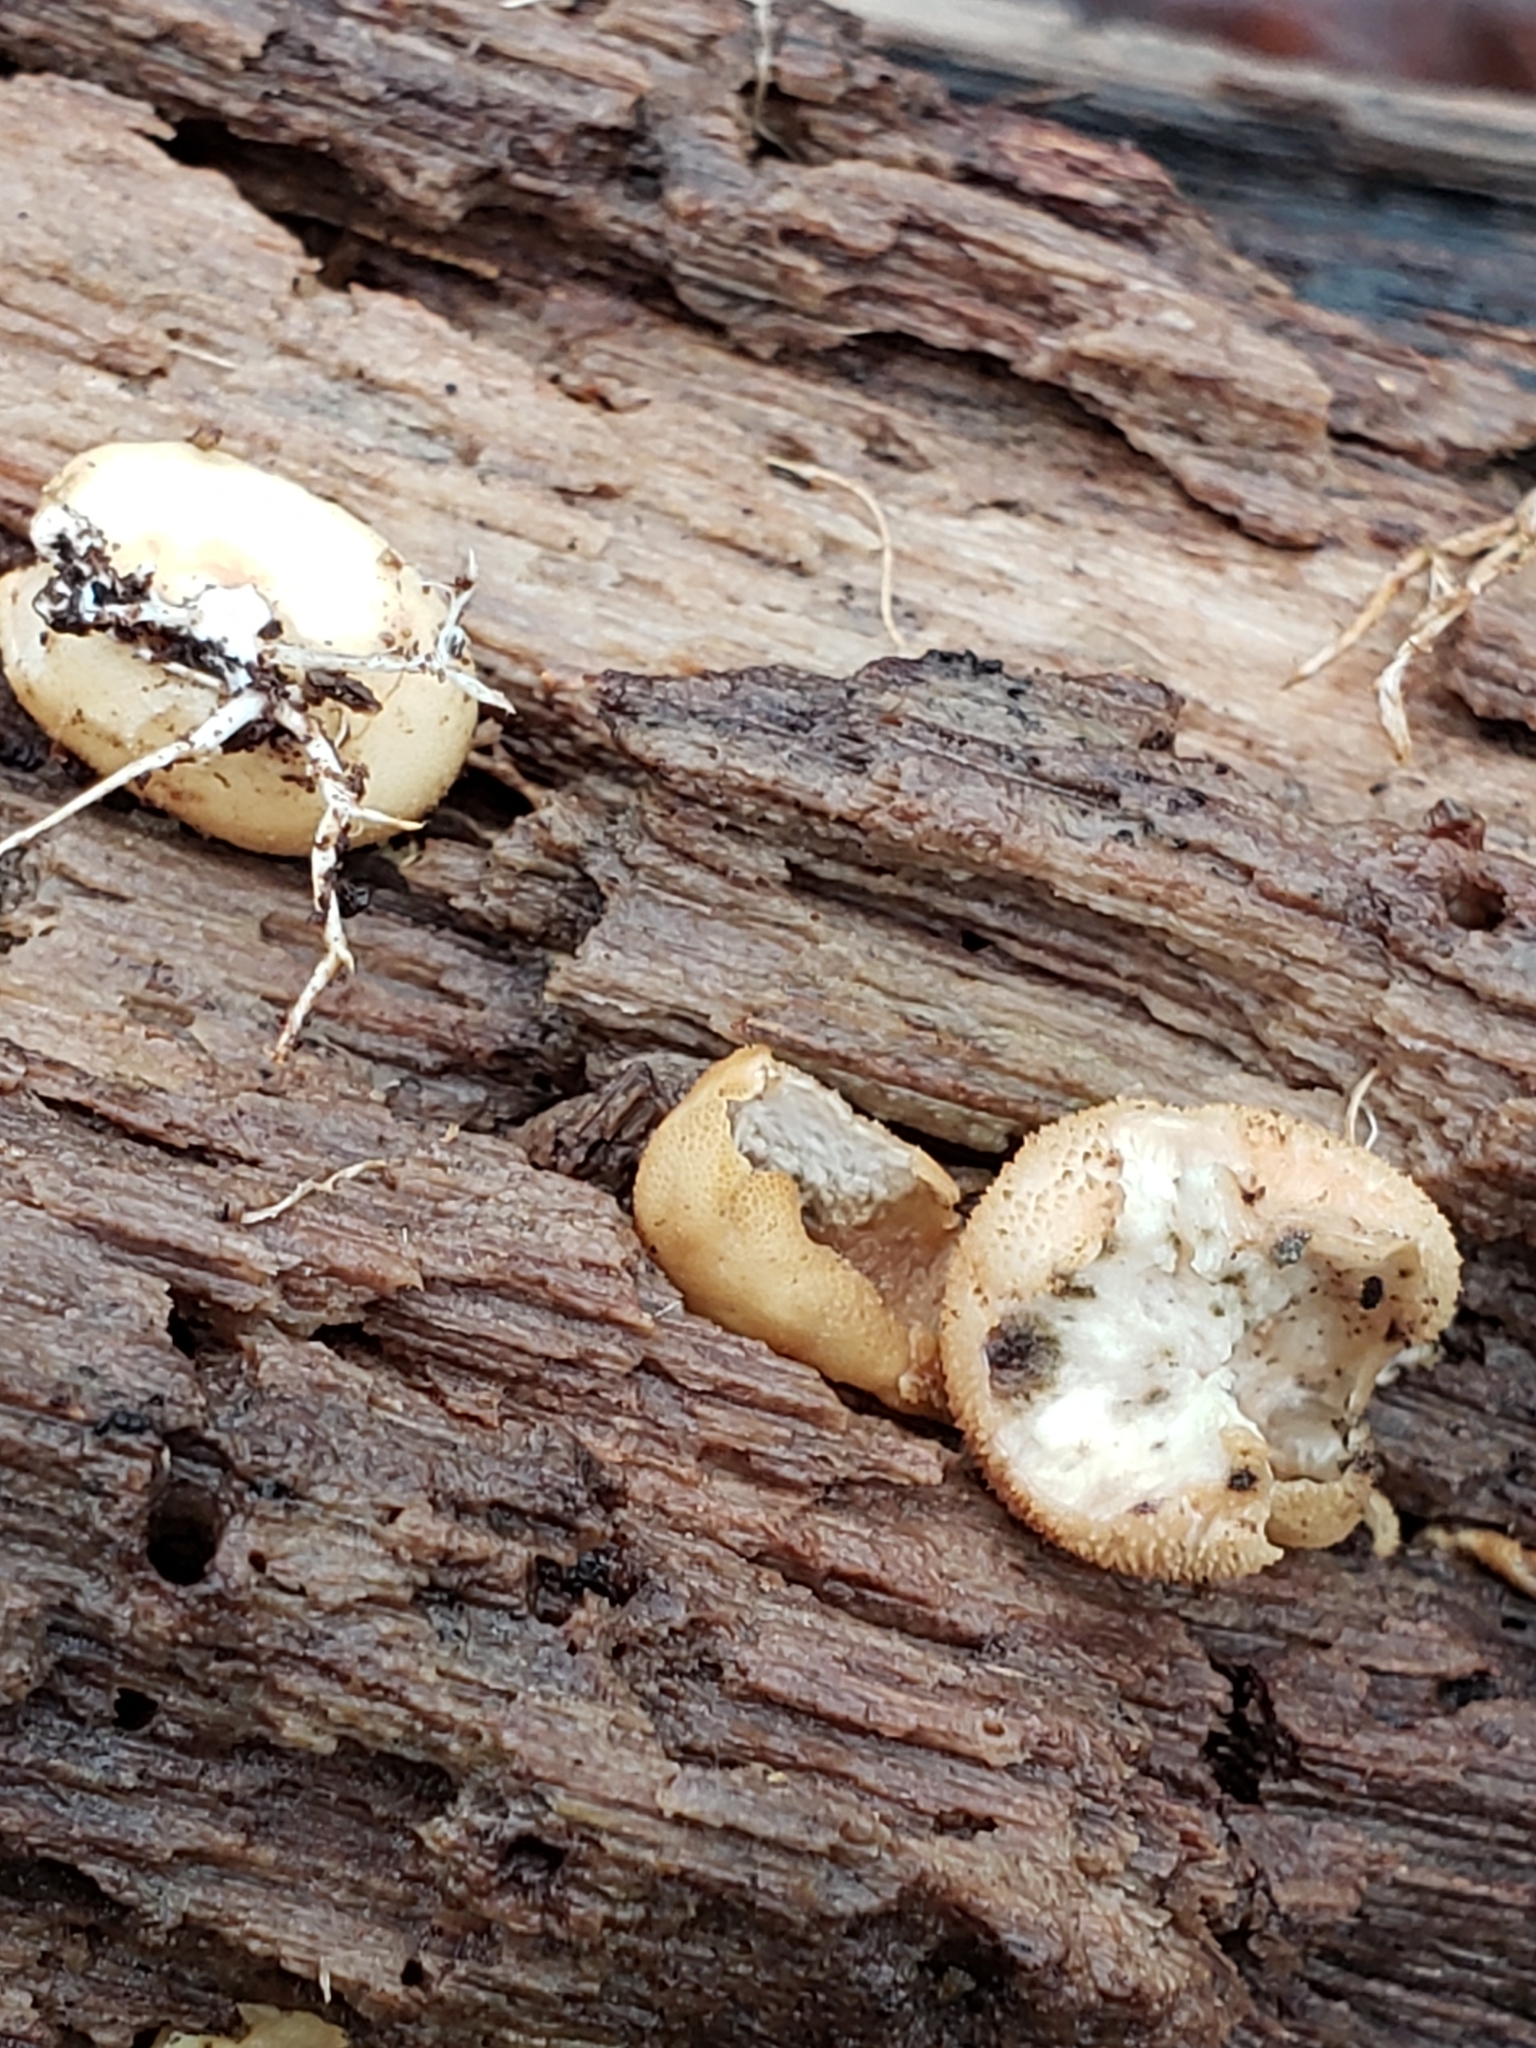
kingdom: Fungi
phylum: Basidiomycota
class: Agaricomycetes
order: Agaricales
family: Lycoperdaceae
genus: Apioperdon
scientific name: Apioperdon pyriforme
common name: Pear-shaped puffball
